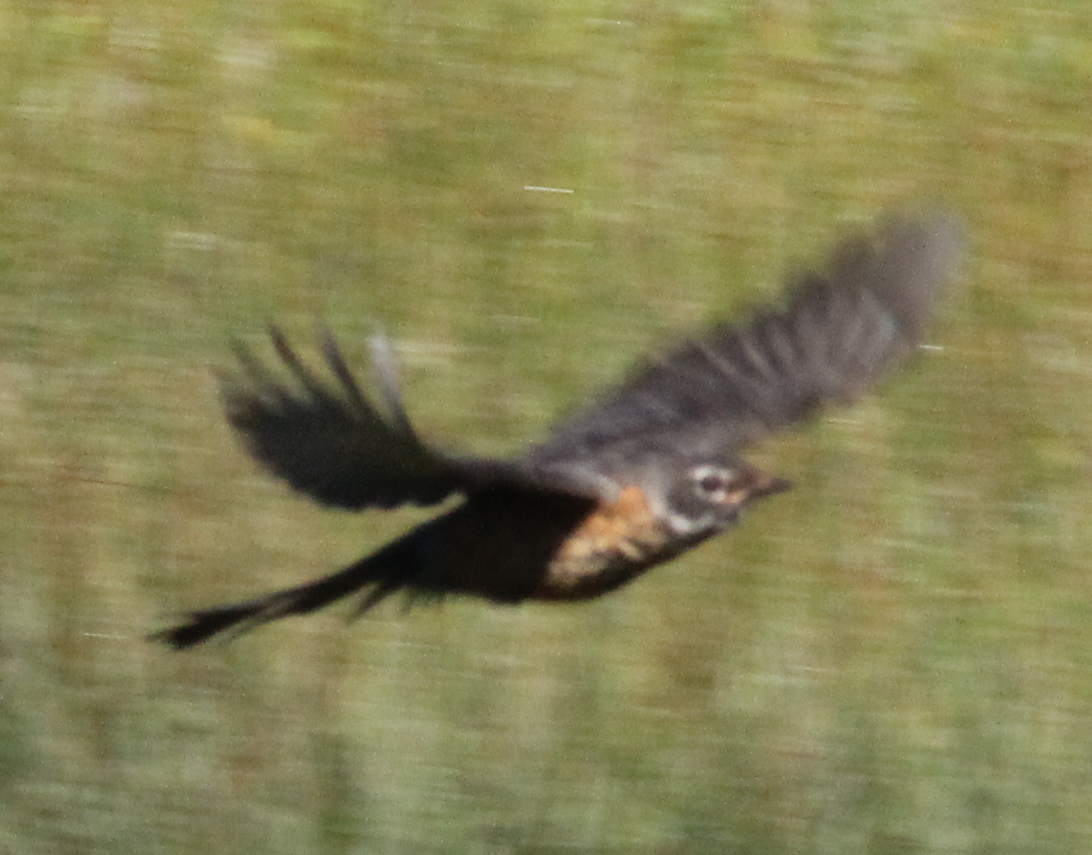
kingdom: Animalia
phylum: Chordata
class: Aves
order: Passeriformes
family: Turdidae
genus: Turdus
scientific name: Turdus migratorius
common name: American robin
